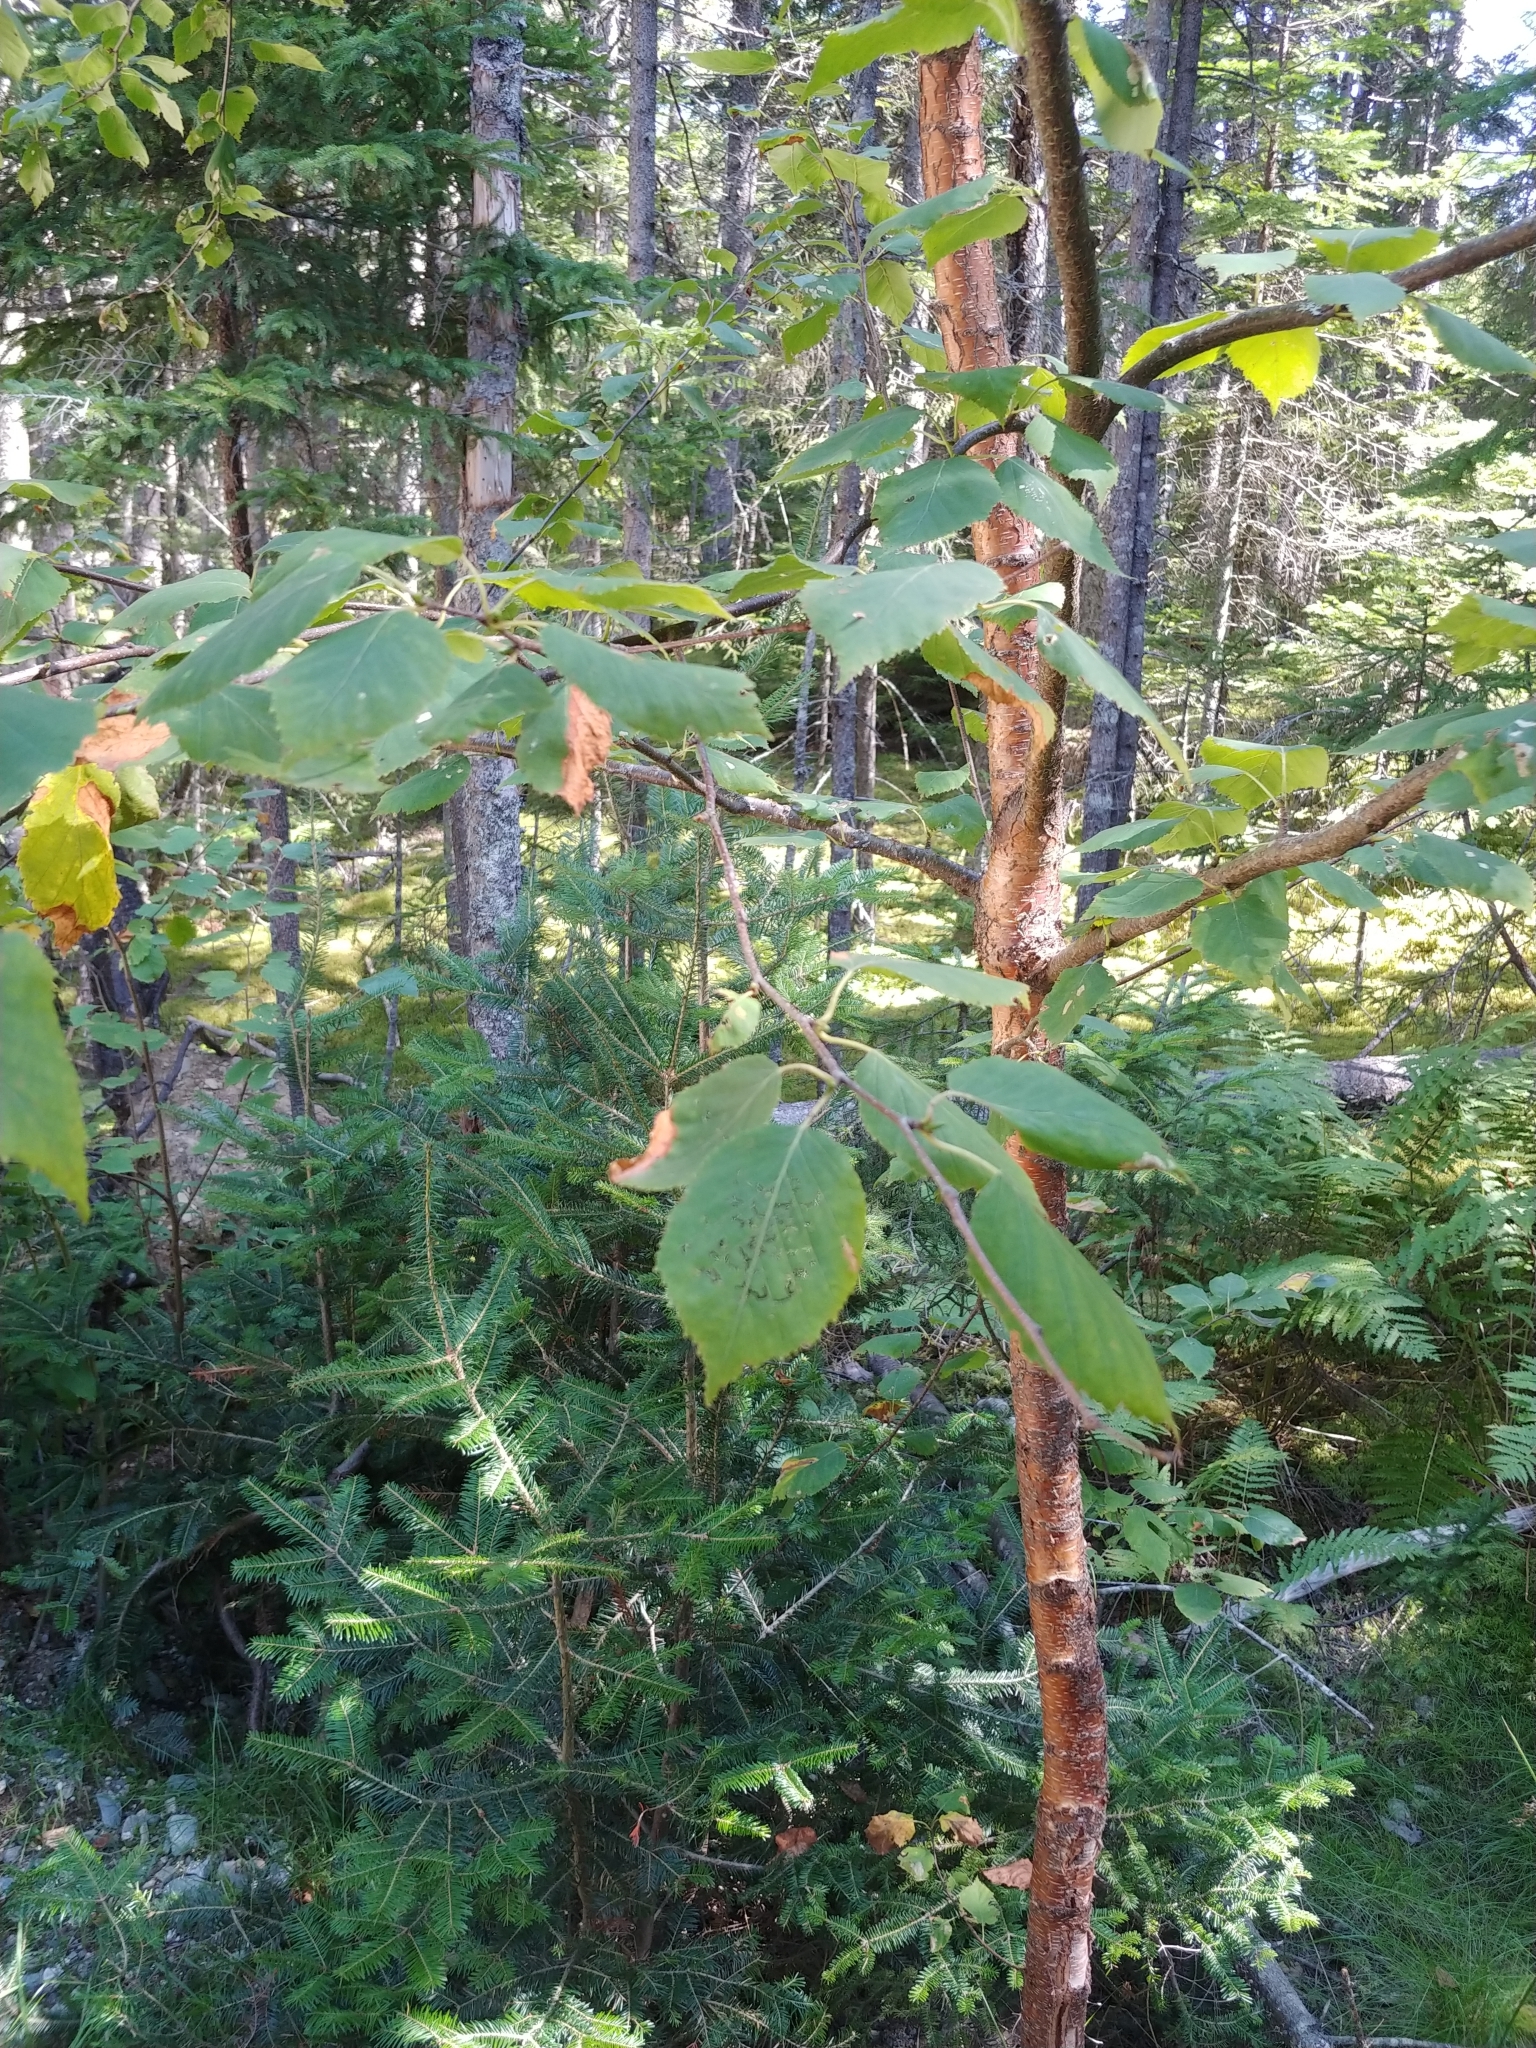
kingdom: Plantae
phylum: Tracheophyta
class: Magnoliopsida
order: Fagales
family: Betulaceae
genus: Betula
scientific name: Betula papyrifera
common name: Paper birch
